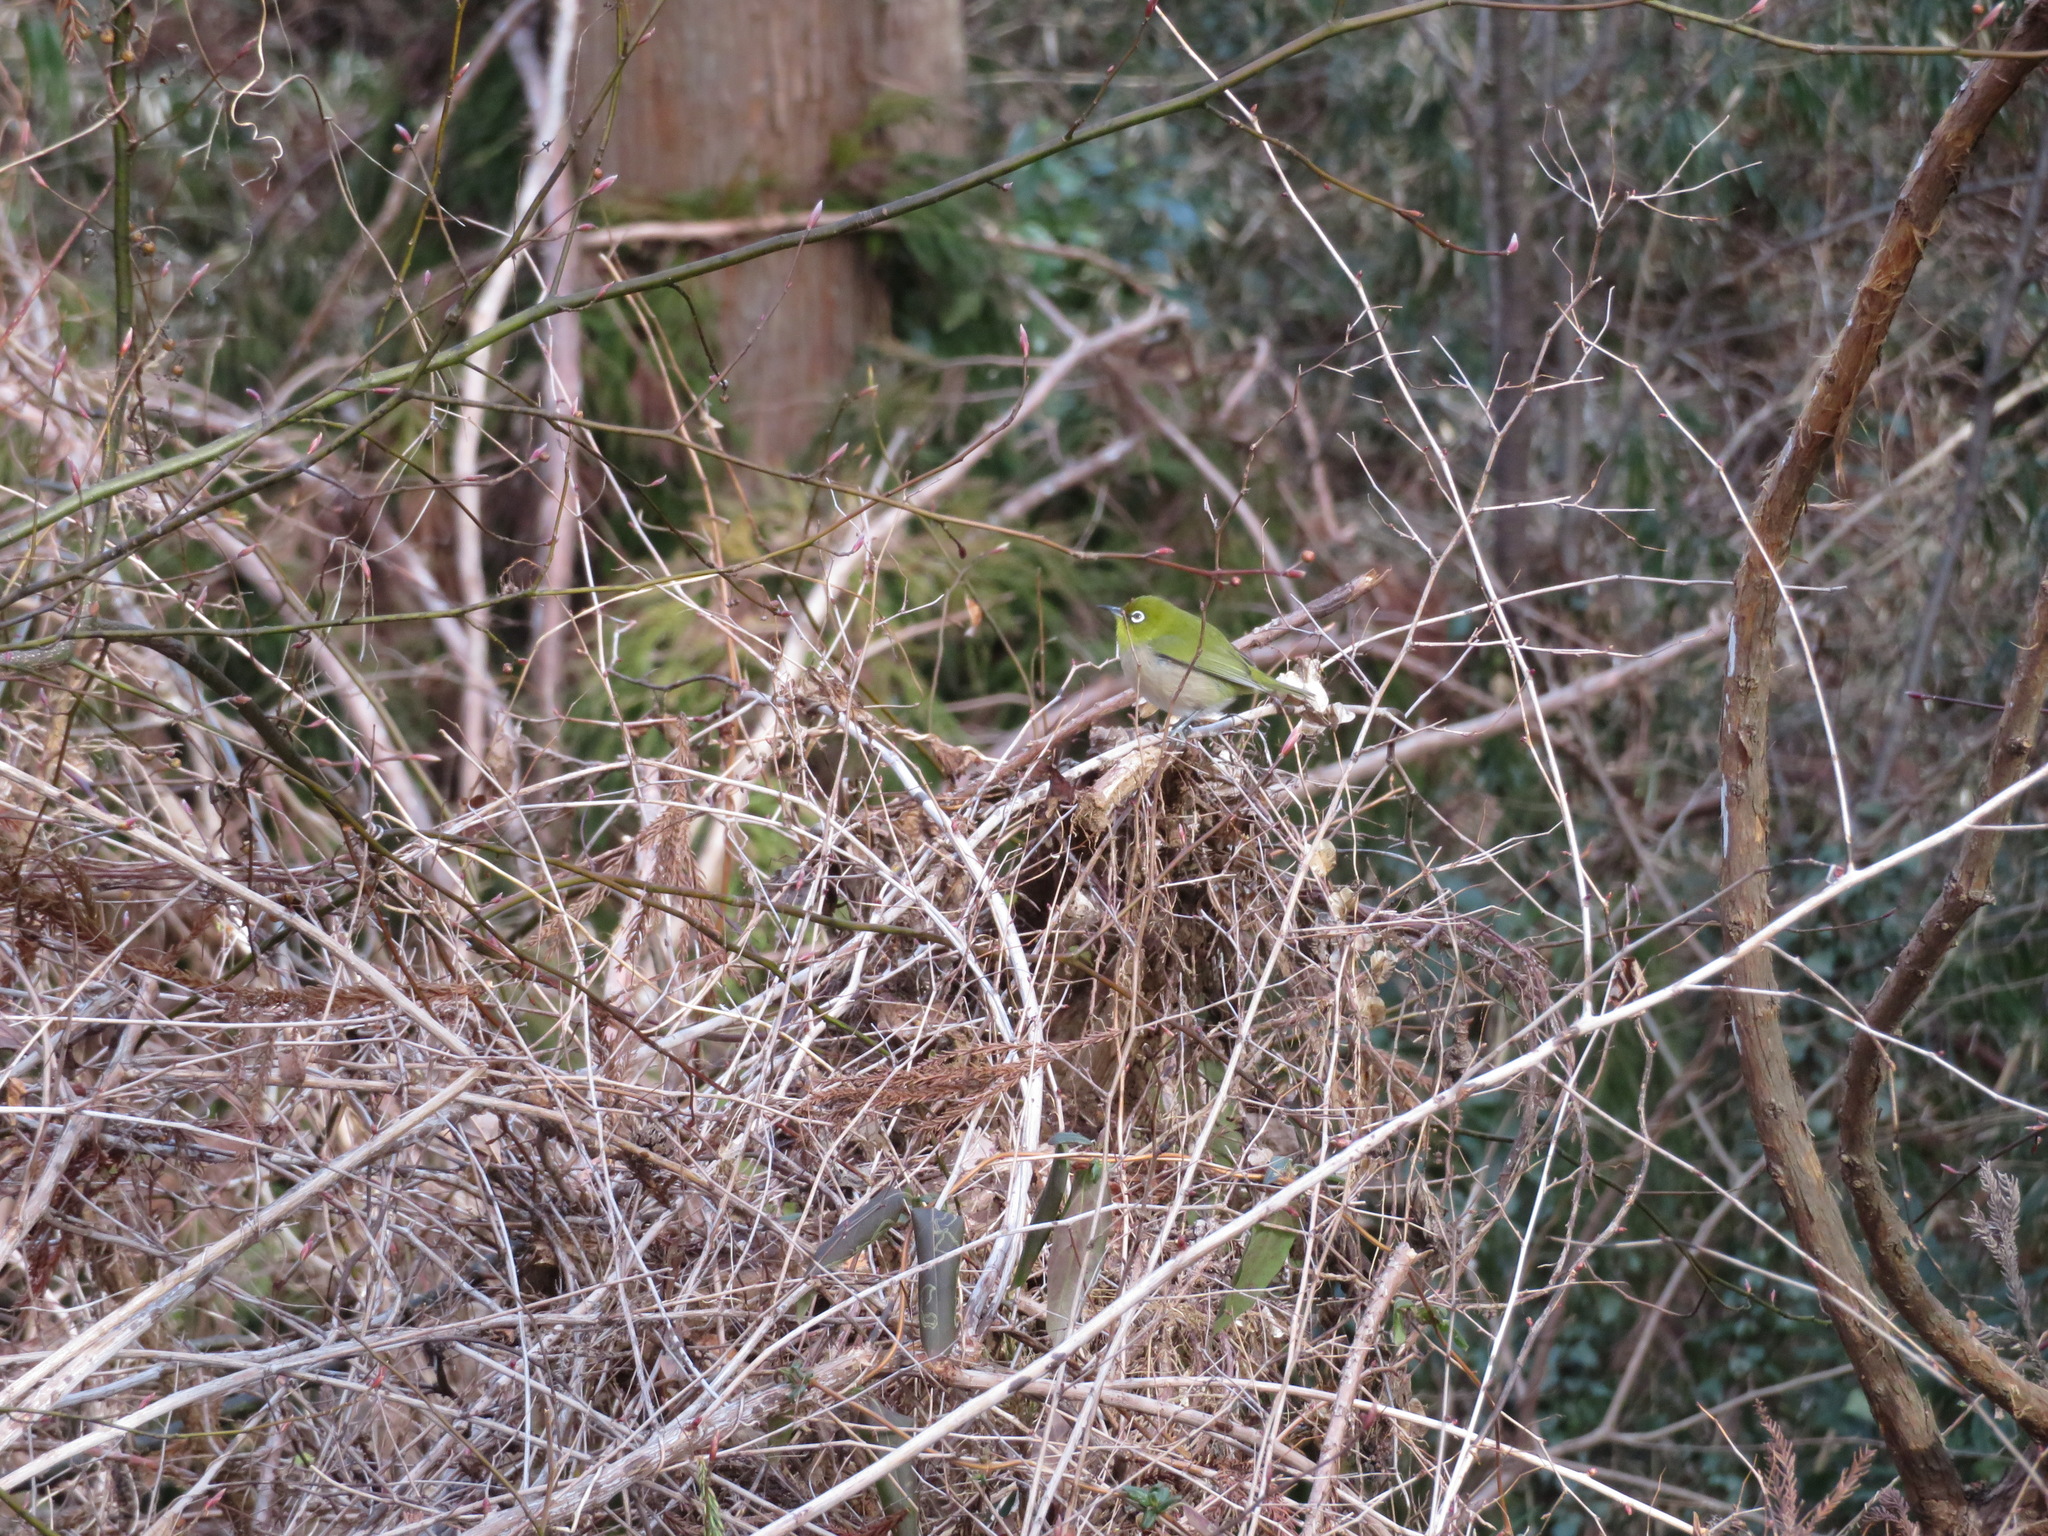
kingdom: Animalia
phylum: Chordata
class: Aves
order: Passeriformes
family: Zosteropidae
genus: Zosterops
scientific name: Zosterops japonicus
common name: Japanese white-eye
